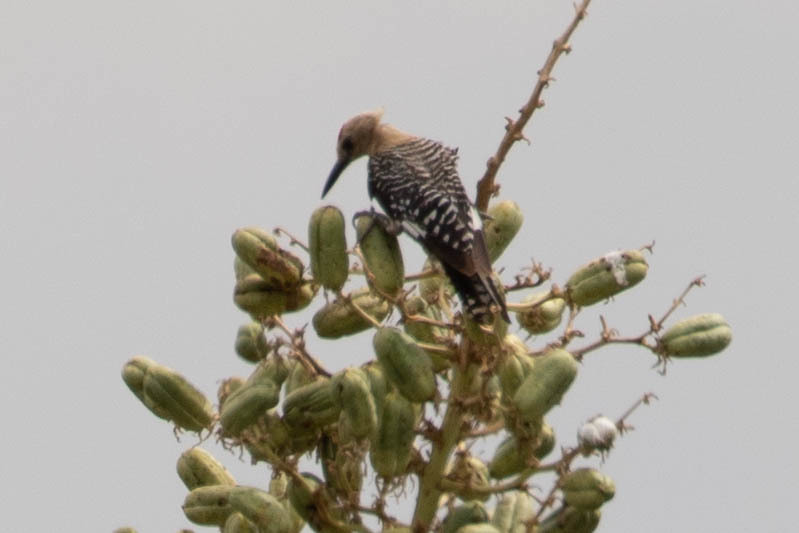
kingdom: Animalia
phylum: Chordata
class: Aves
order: Piciformes
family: Picidae
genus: Melanerpes
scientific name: Melanerpes uropygialis
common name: Gila woodpecker
